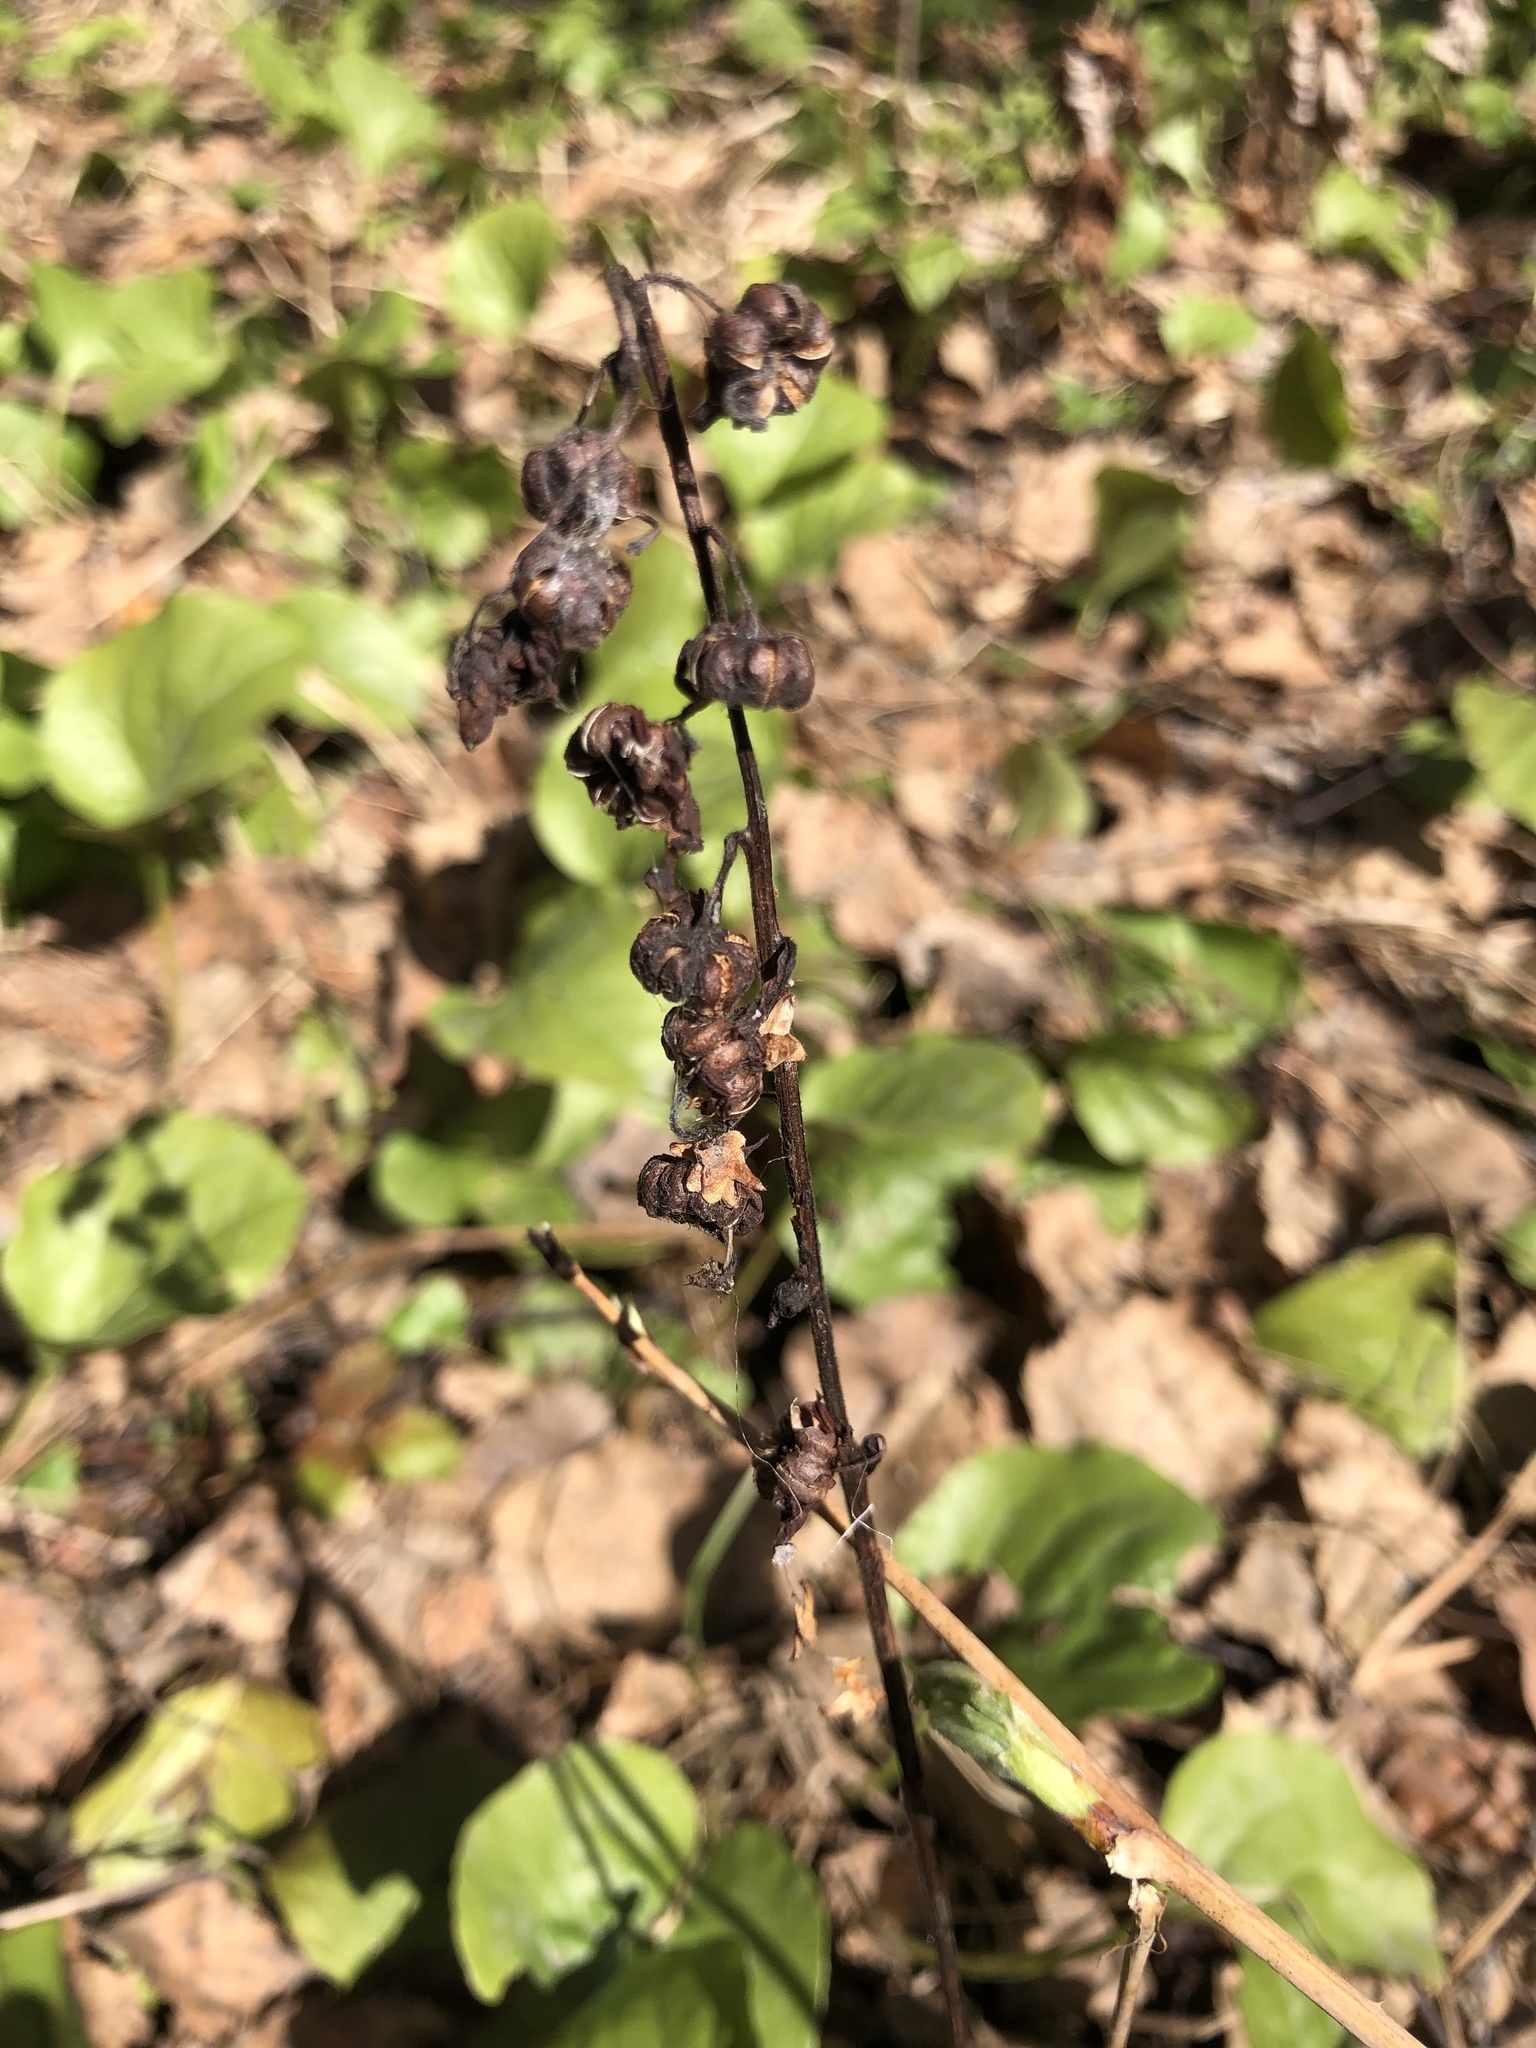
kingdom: Plantae
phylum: Tracheophyta
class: Magnoliopsida
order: Ericales
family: Ericaceae
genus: Pyrola
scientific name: Pyrola rotundifolia
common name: Round-leaved wintergreen
